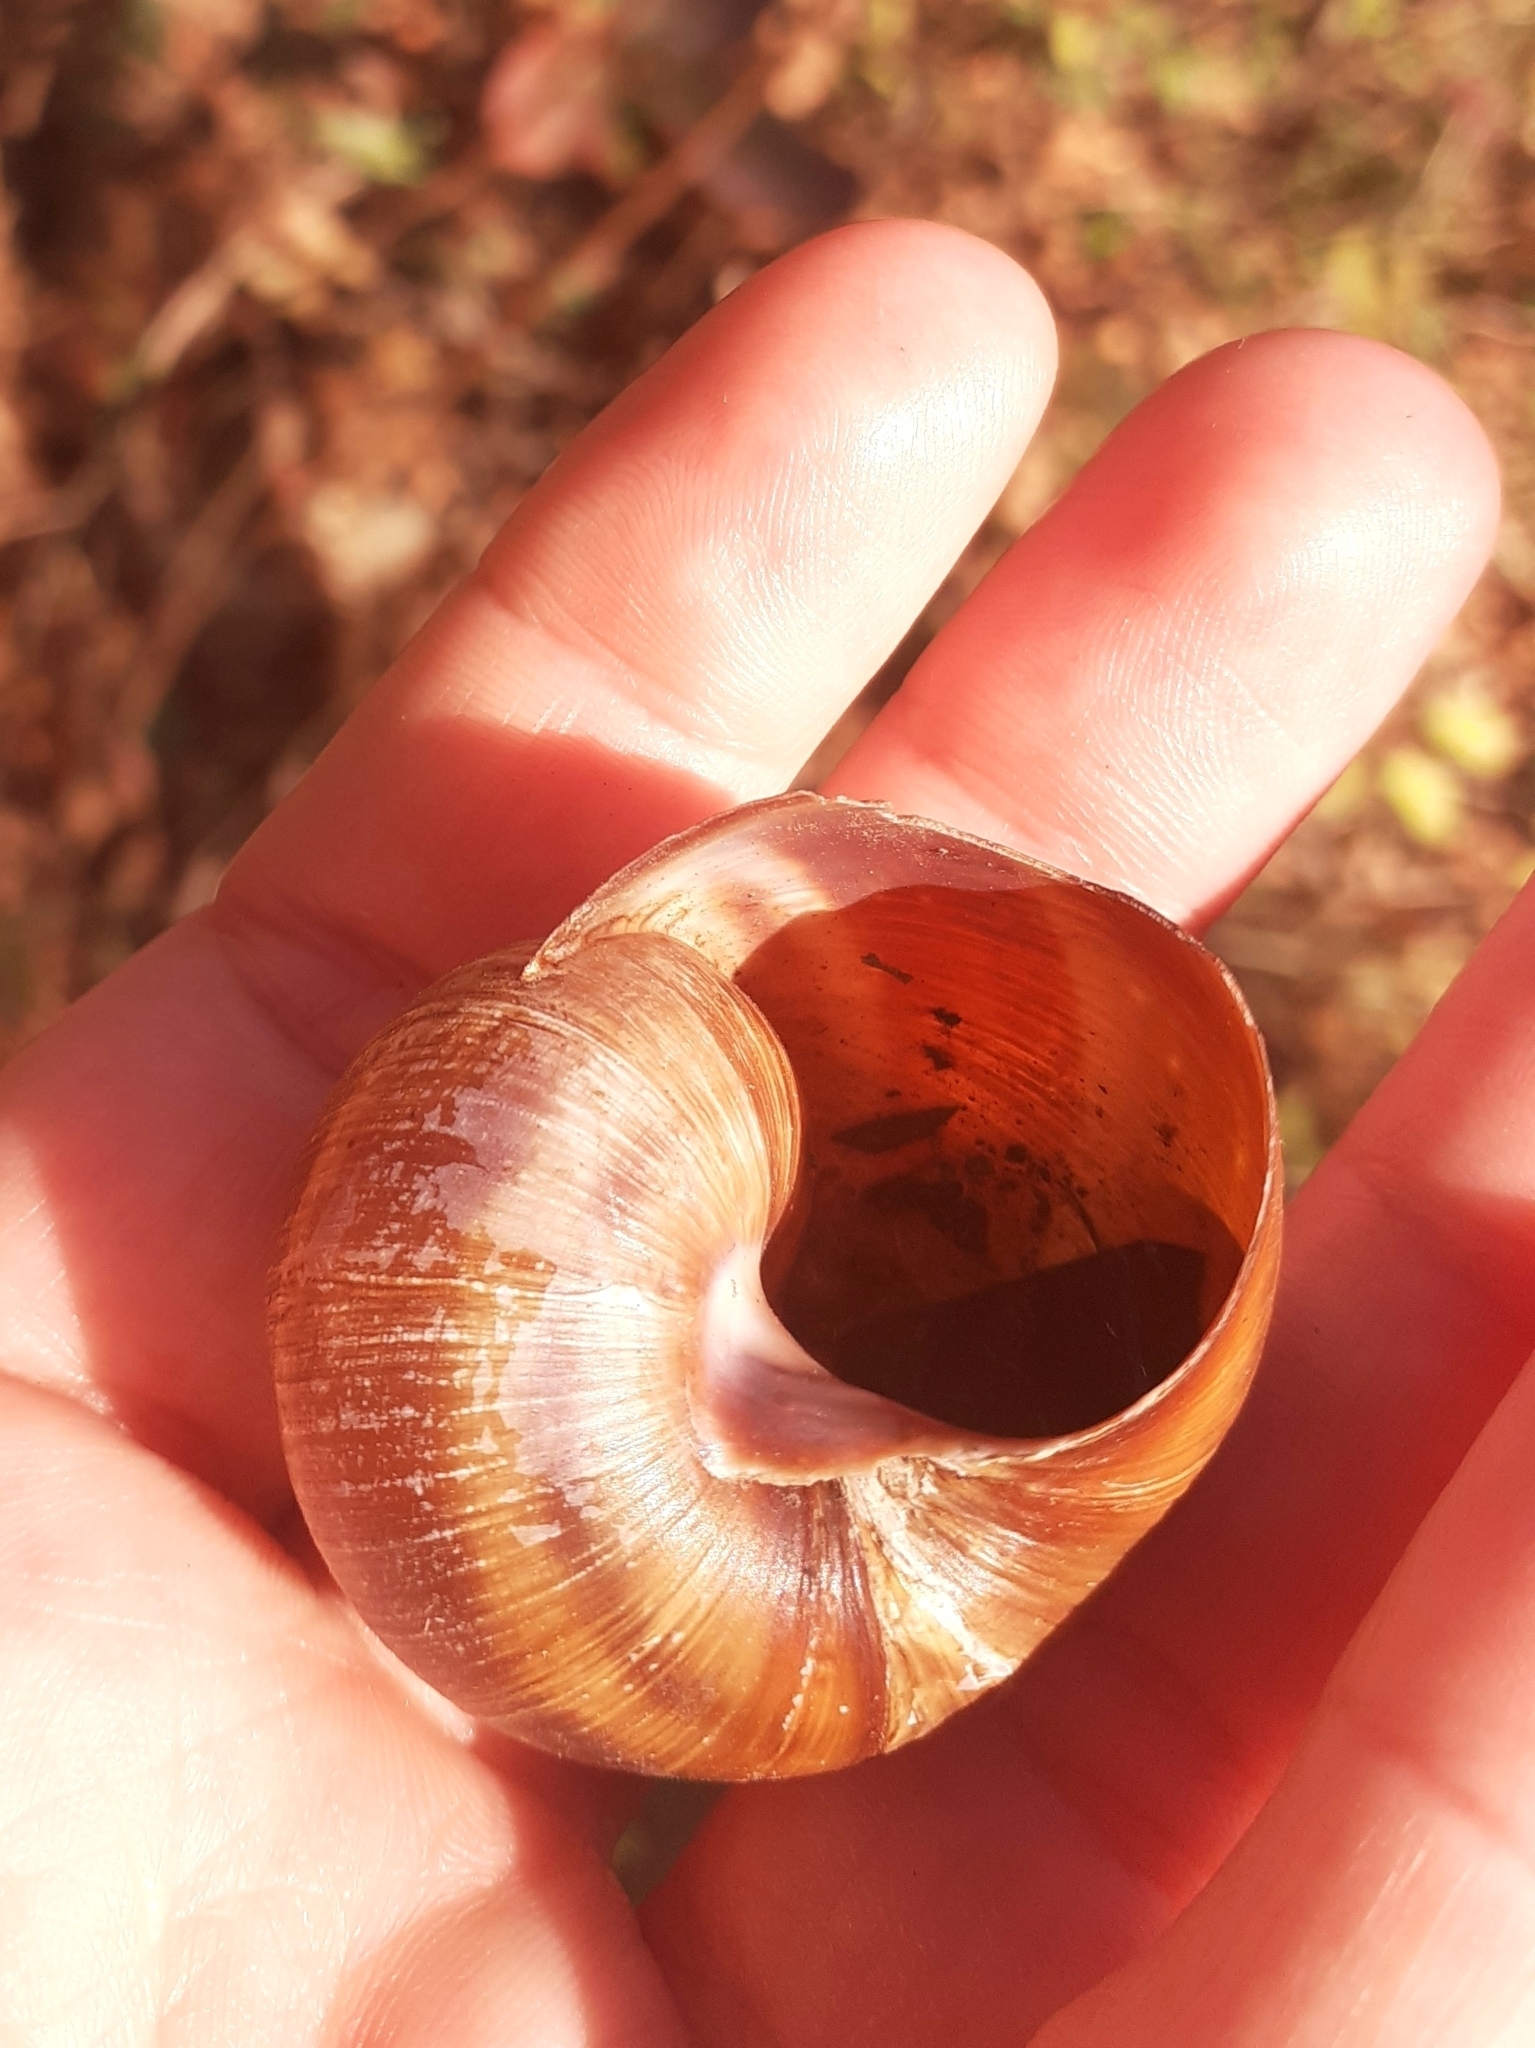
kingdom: Animalia
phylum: Mollusca
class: Gastropoda
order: Stylommatophora
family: Helicidae
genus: Helix
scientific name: Helix pomatia
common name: Roman snail
